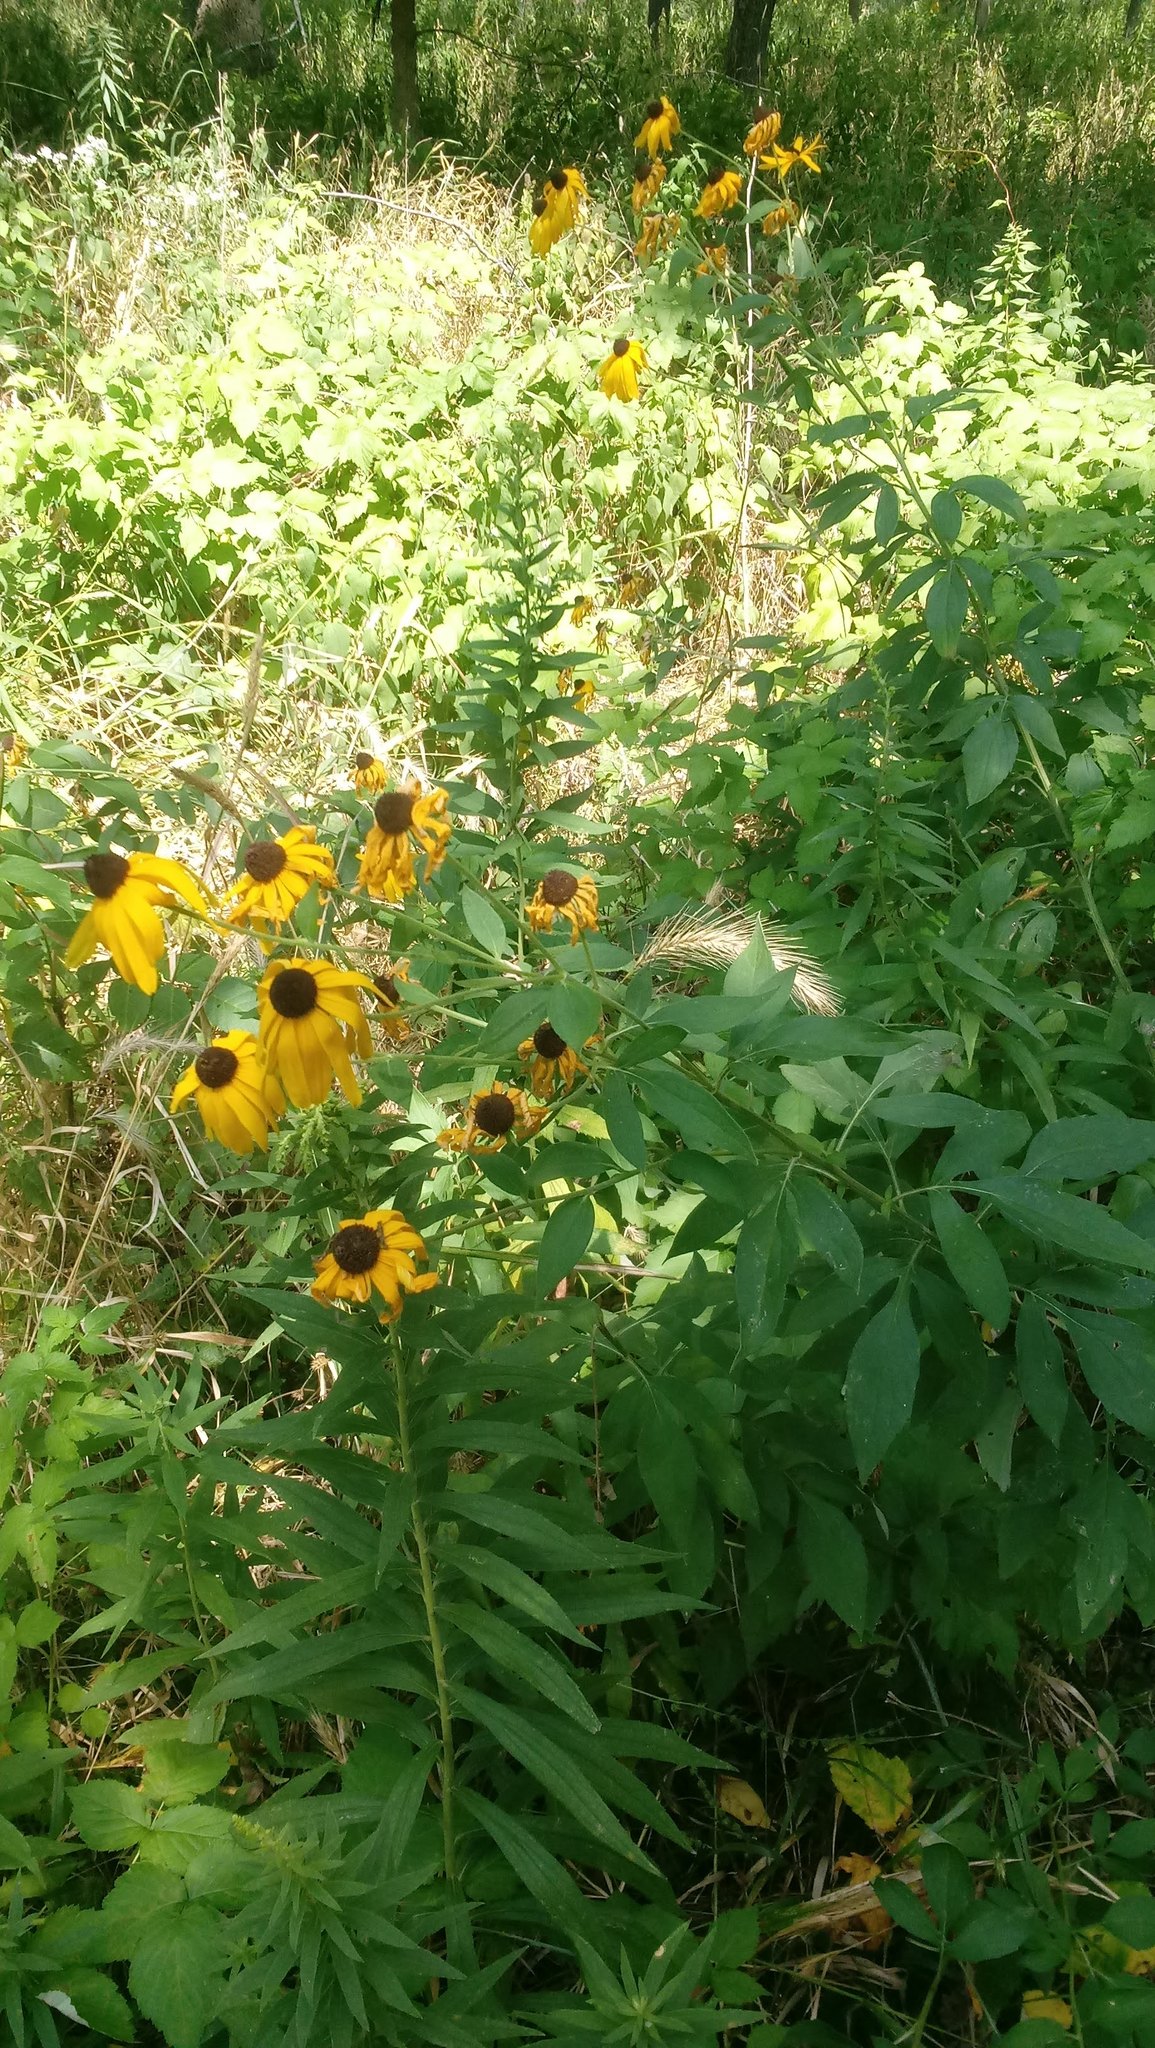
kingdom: Plantae
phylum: Tracheophyta
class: Magnoliopsida
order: Asterales
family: Asteraceae
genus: Rudbeckia
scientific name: Rudbeckia subtomentosa
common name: Sweet coneflower
